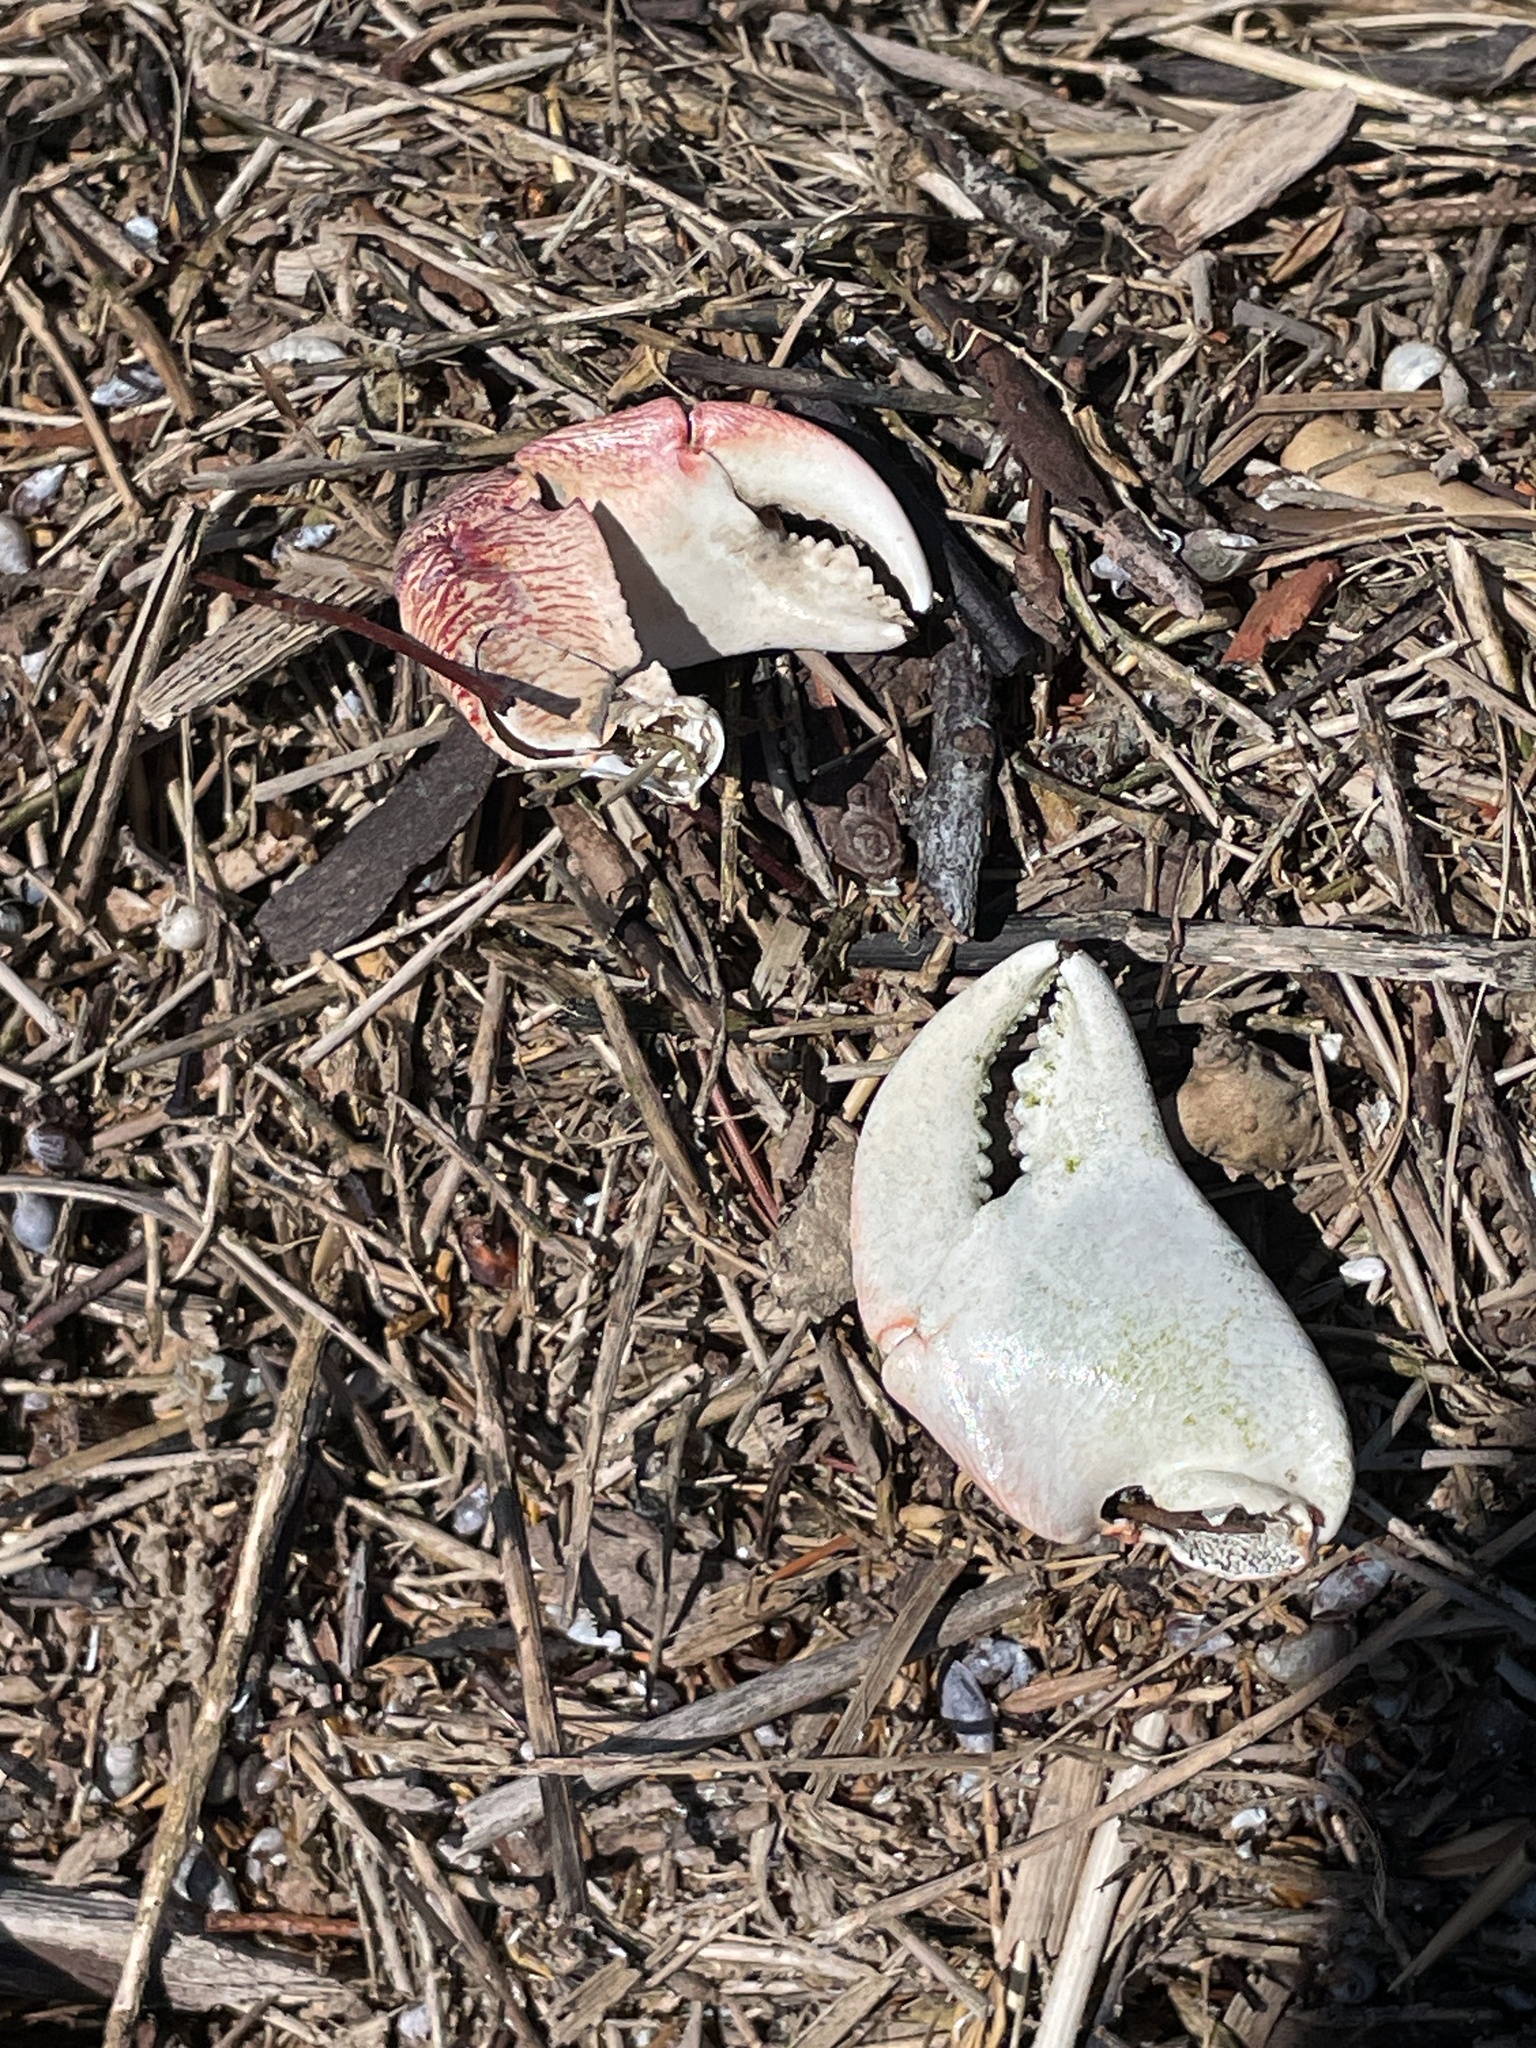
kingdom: Animalia
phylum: Arthropoda
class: Malacostraca
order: Decapoda
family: Grapsidae
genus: Pachygrapsus
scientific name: Pachygrapsus crassipes
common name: Striped shore crab
